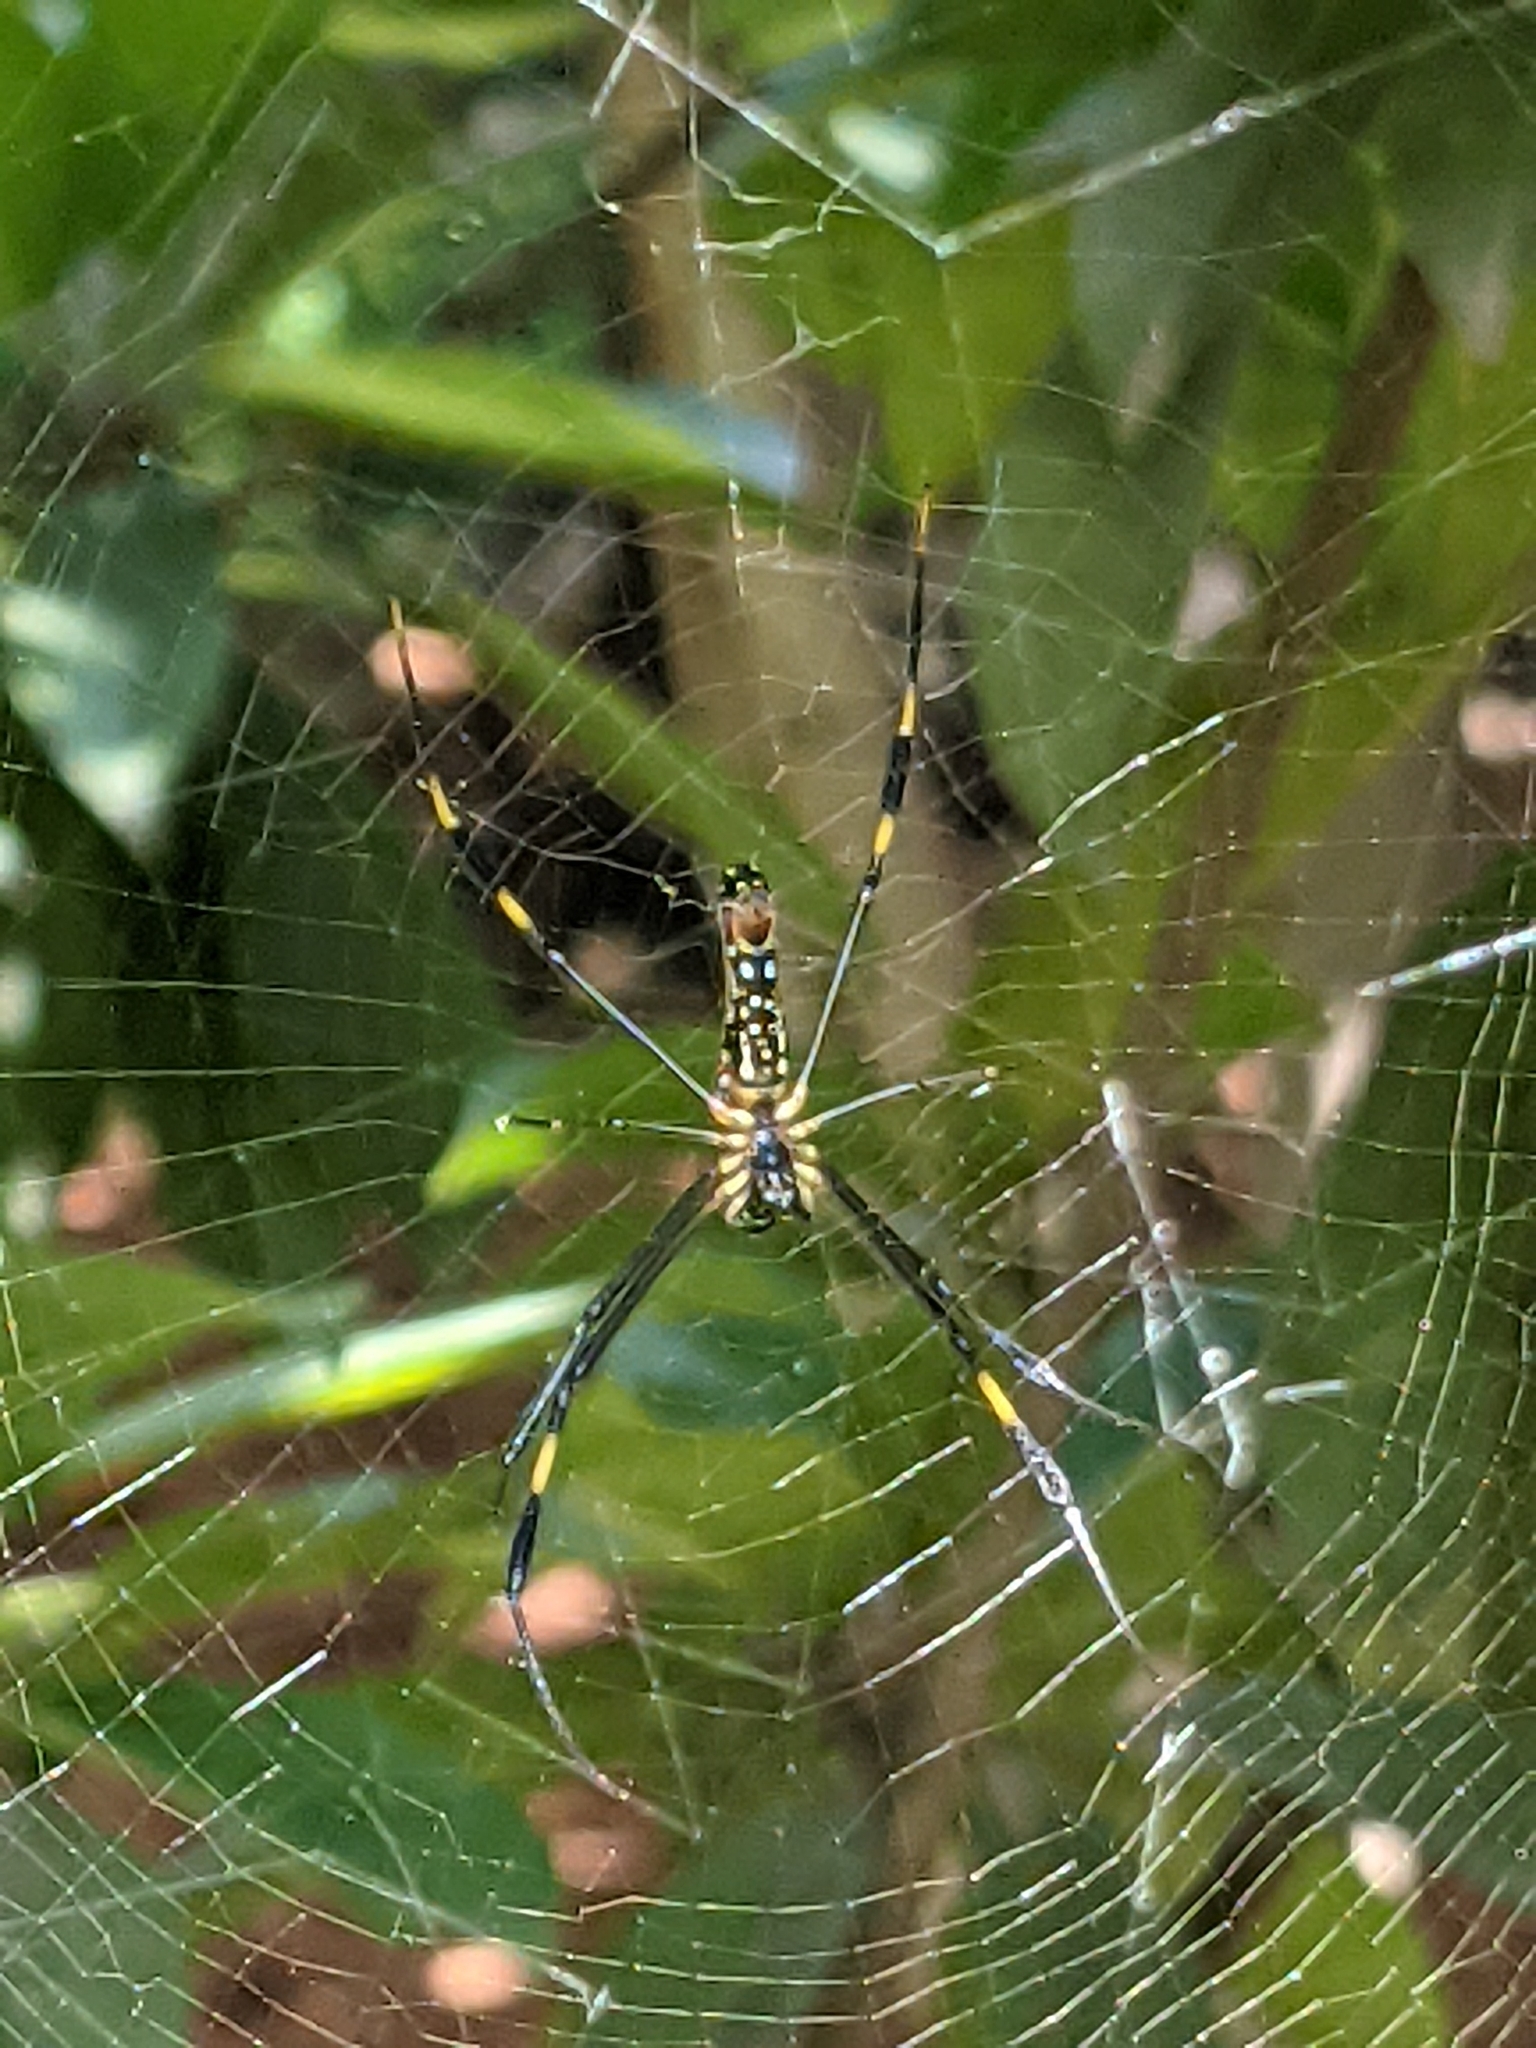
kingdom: Animalia
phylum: Arthropoda
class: Arachnida
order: Araneae
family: Araneidae
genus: Nephila
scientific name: Nephila pilipes
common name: Giant golden orb weaver
